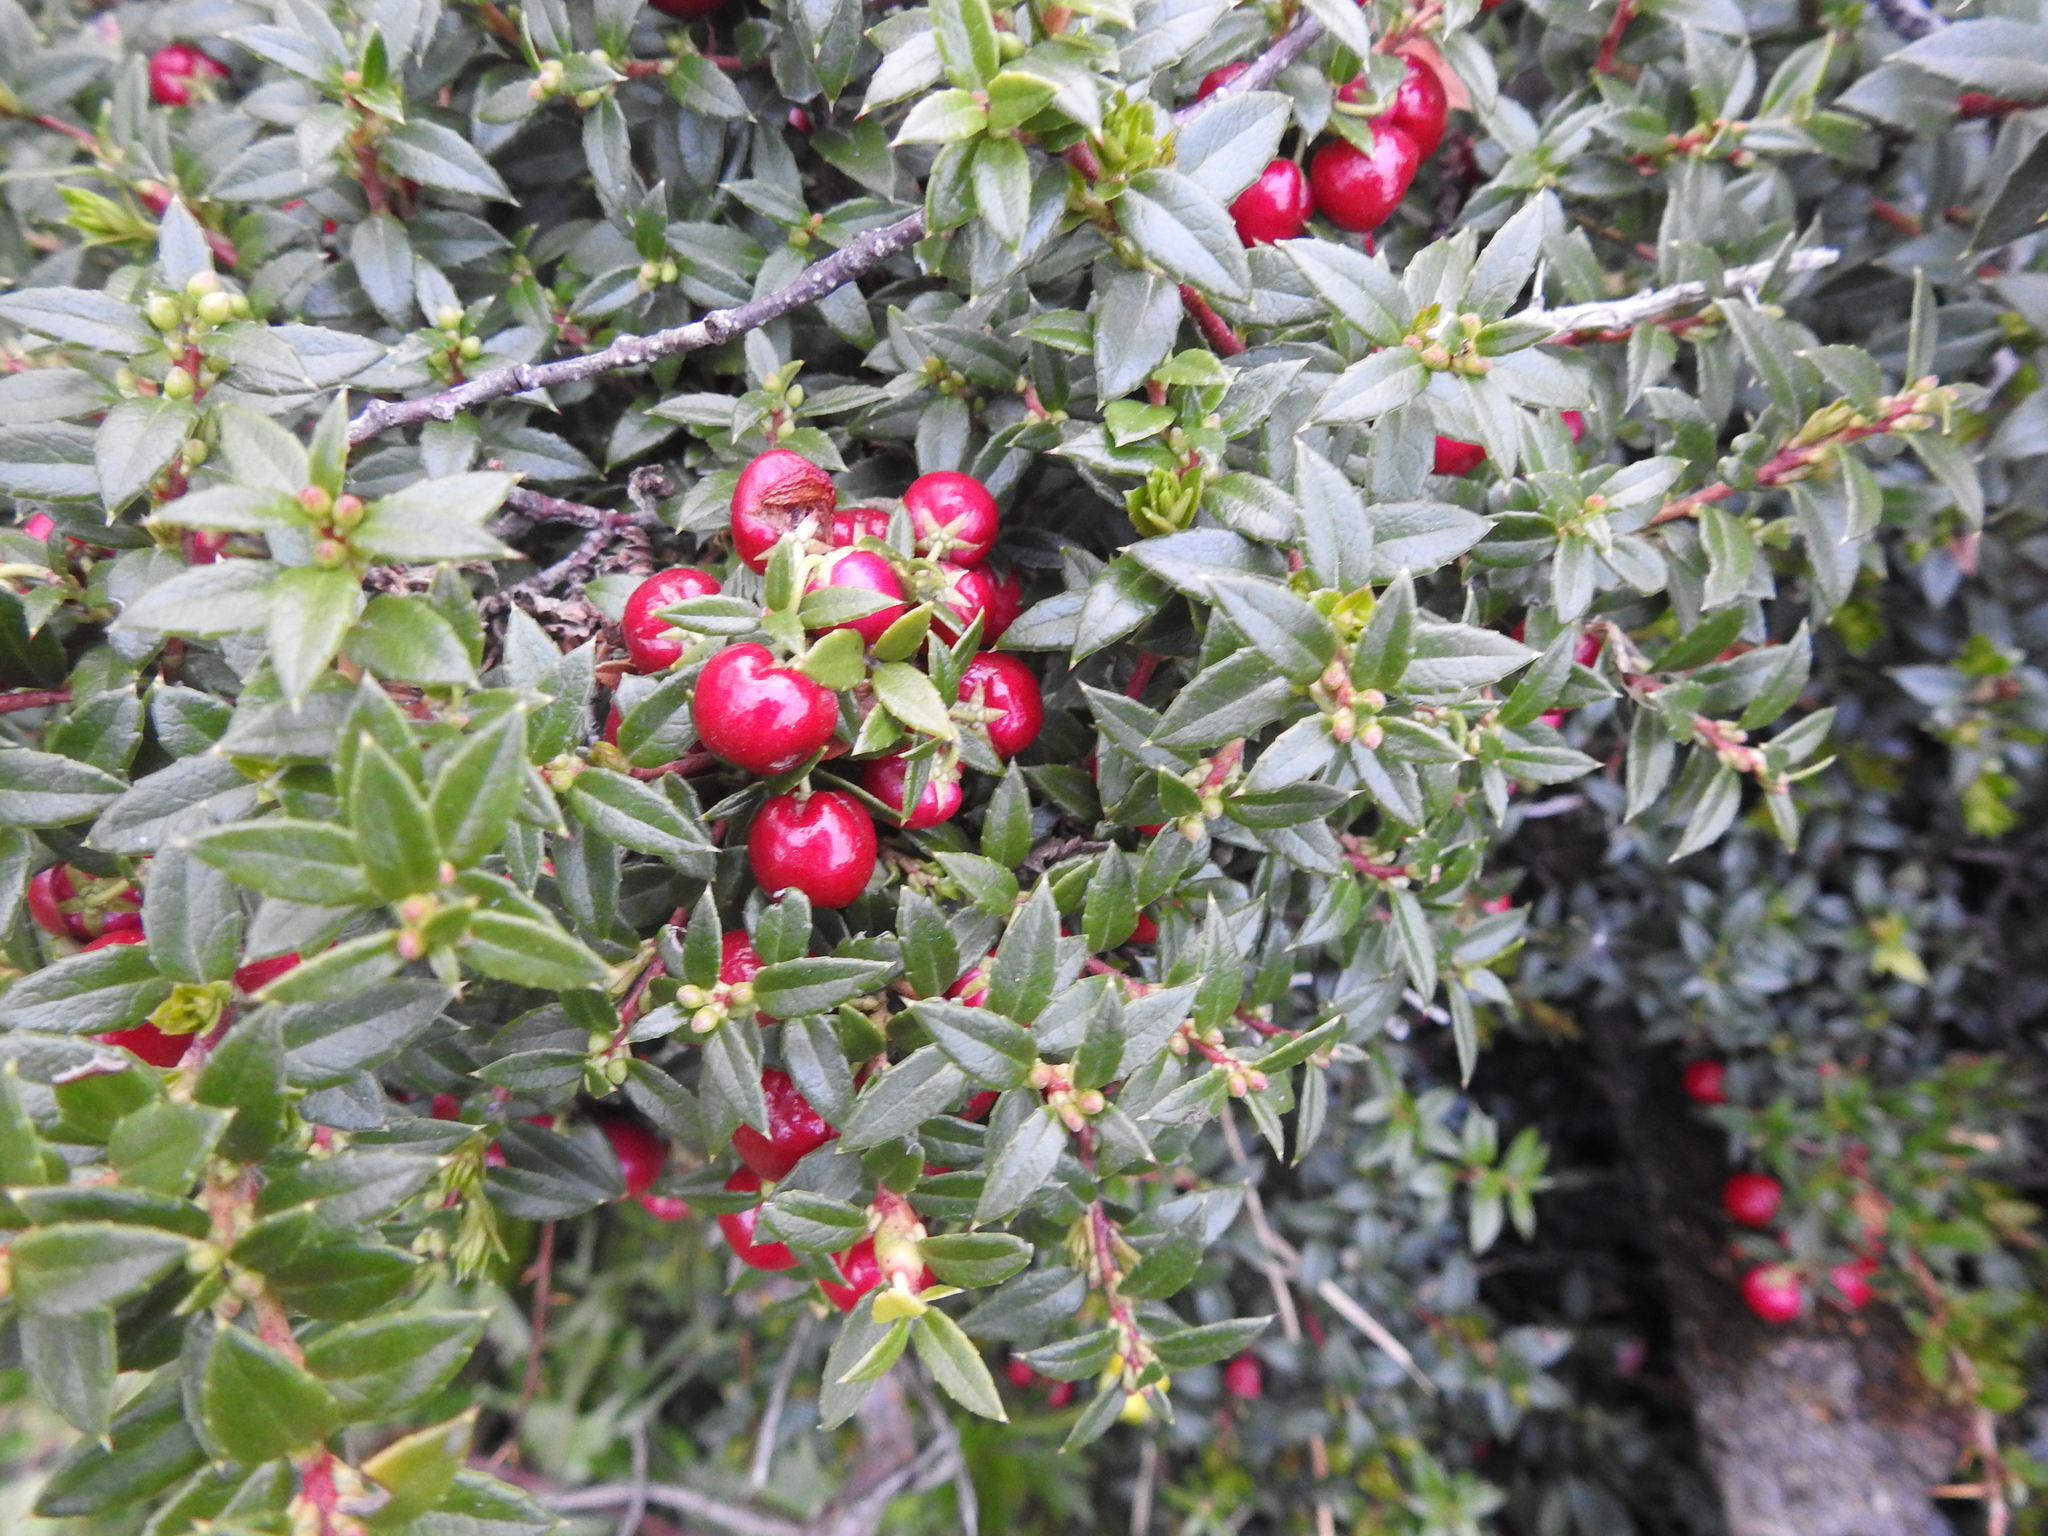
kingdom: Plantae
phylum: Tracheophyta
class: Magnoliopsida
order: Ericales
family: Ericaceae
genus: Gaultheria
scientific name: Gaultheria mucronata
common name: Prickly heath
